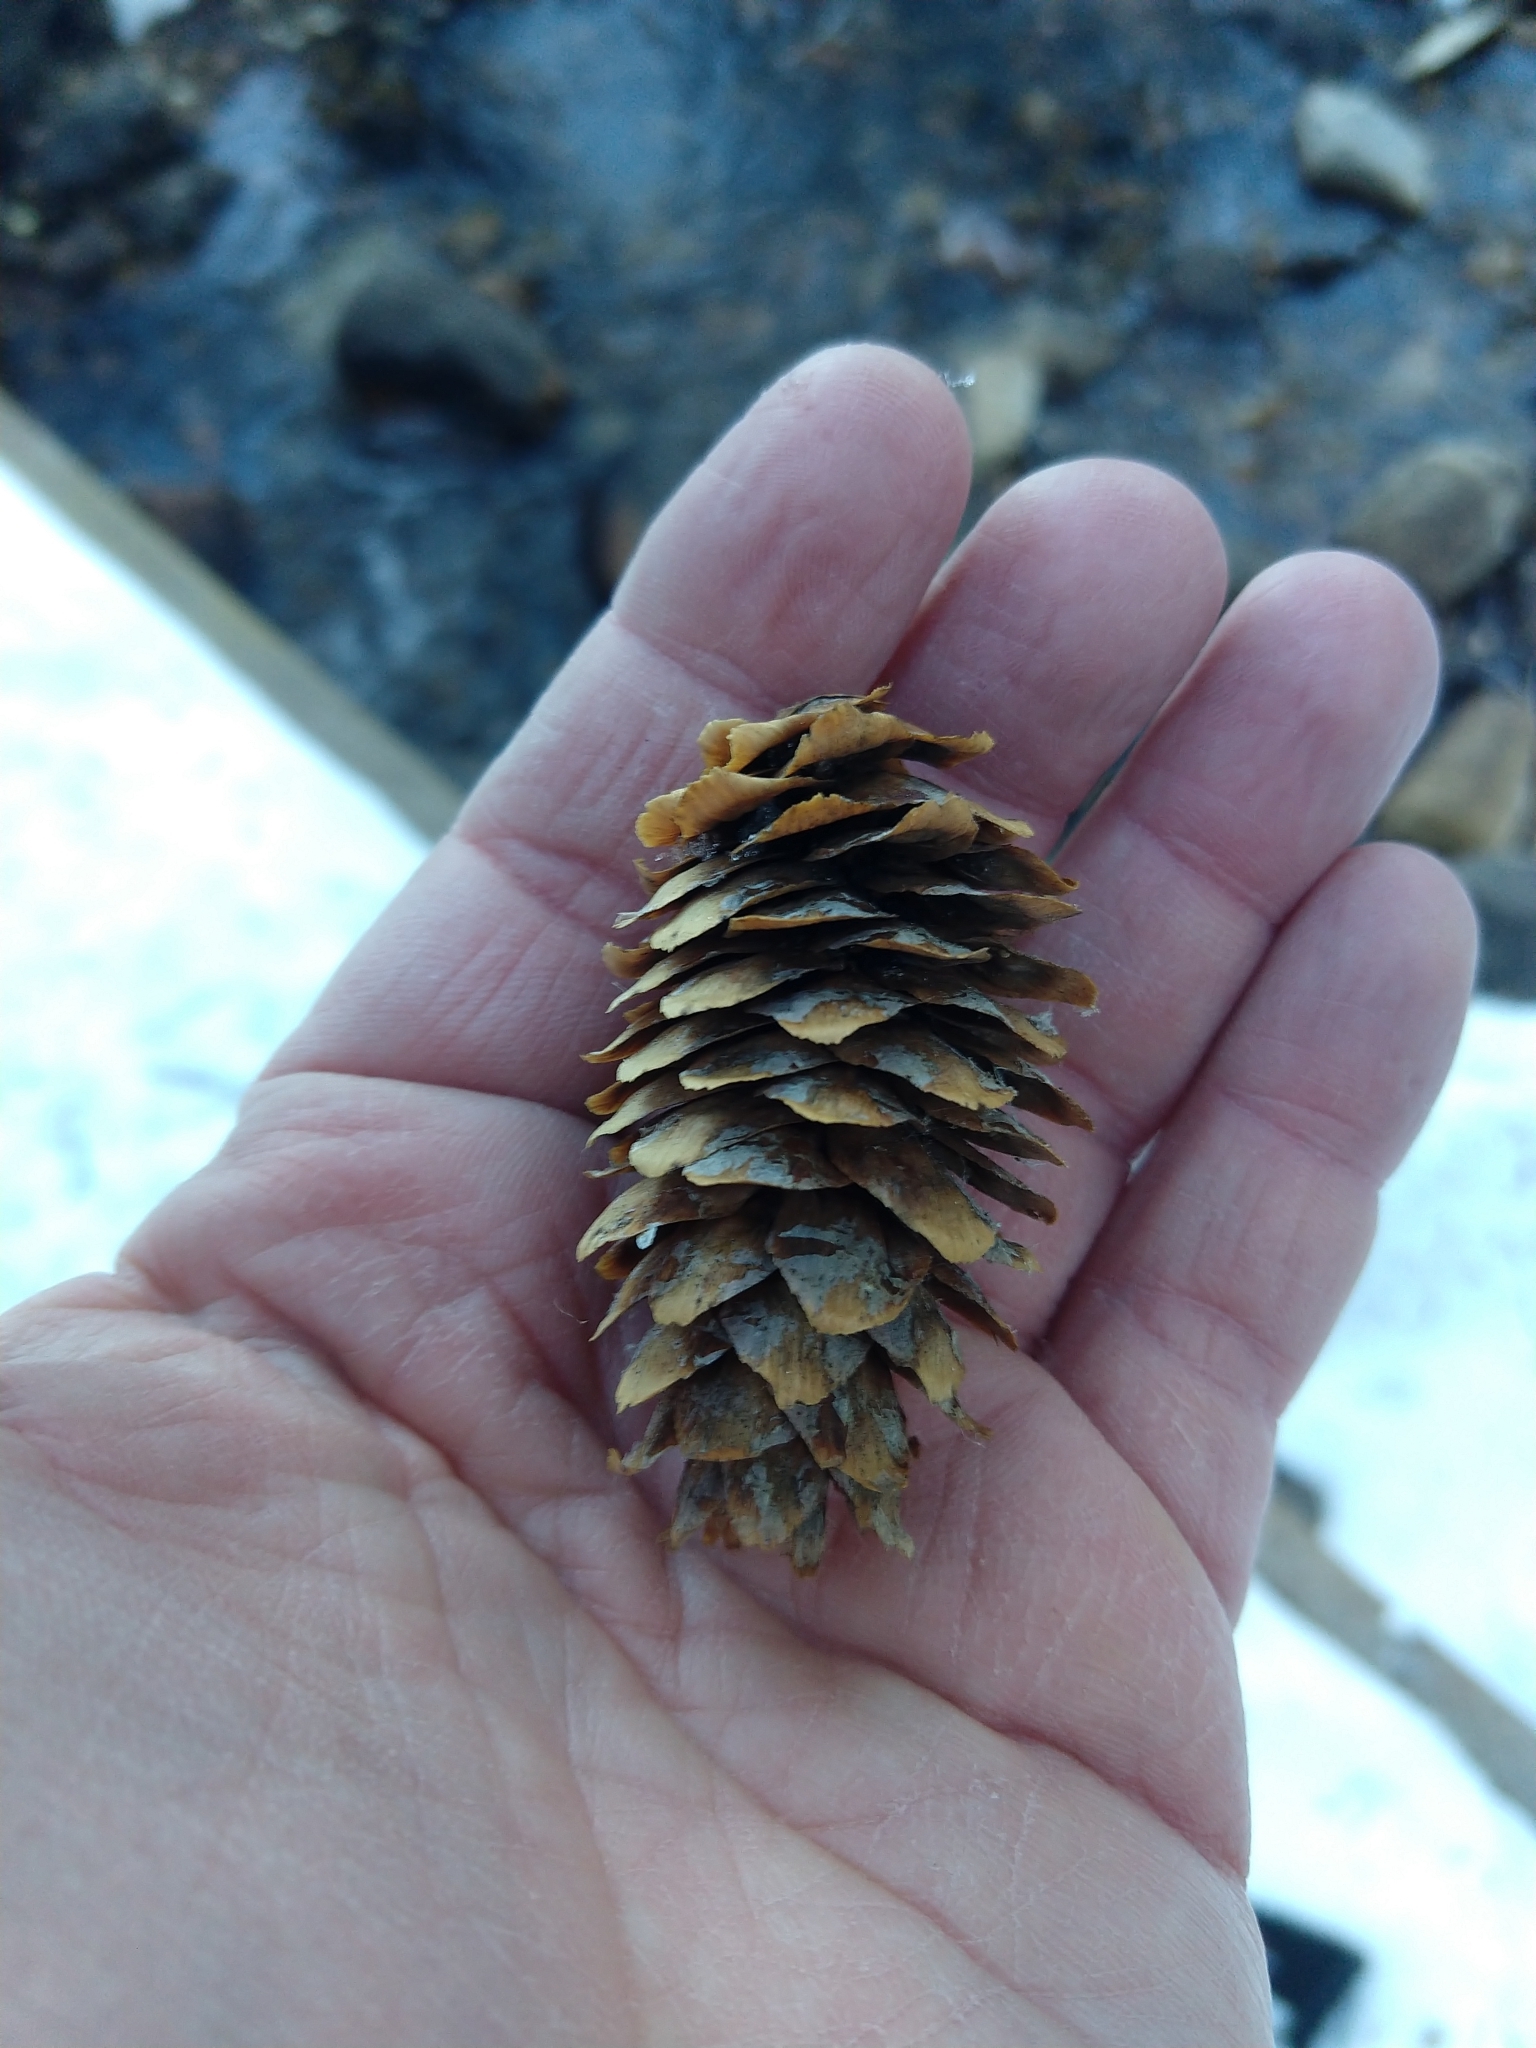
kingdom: Plantae
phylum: Tracheophyta
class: Pinopsida
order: Pinales
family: Pinaceae
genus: Picea
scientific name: Picea engelmannii
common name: Engelmann spruce
